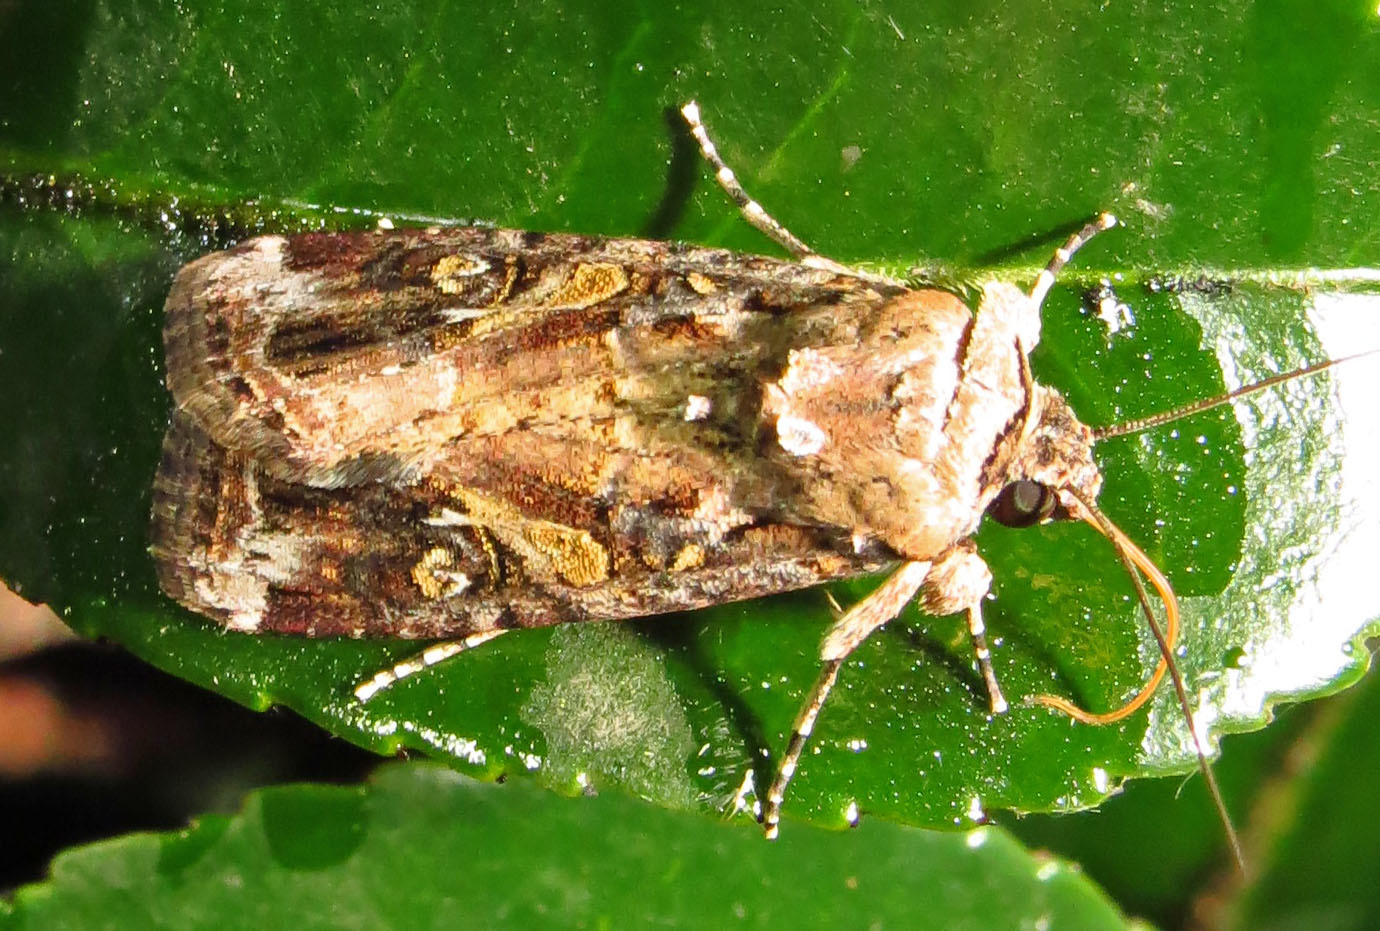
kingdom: Animalia
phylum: Arthropoda
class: Insecta
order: Lepidoptera
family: Noctuidae
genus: Spodoptera
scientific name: Spodoptera frugiperda
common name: Fall armyworm
